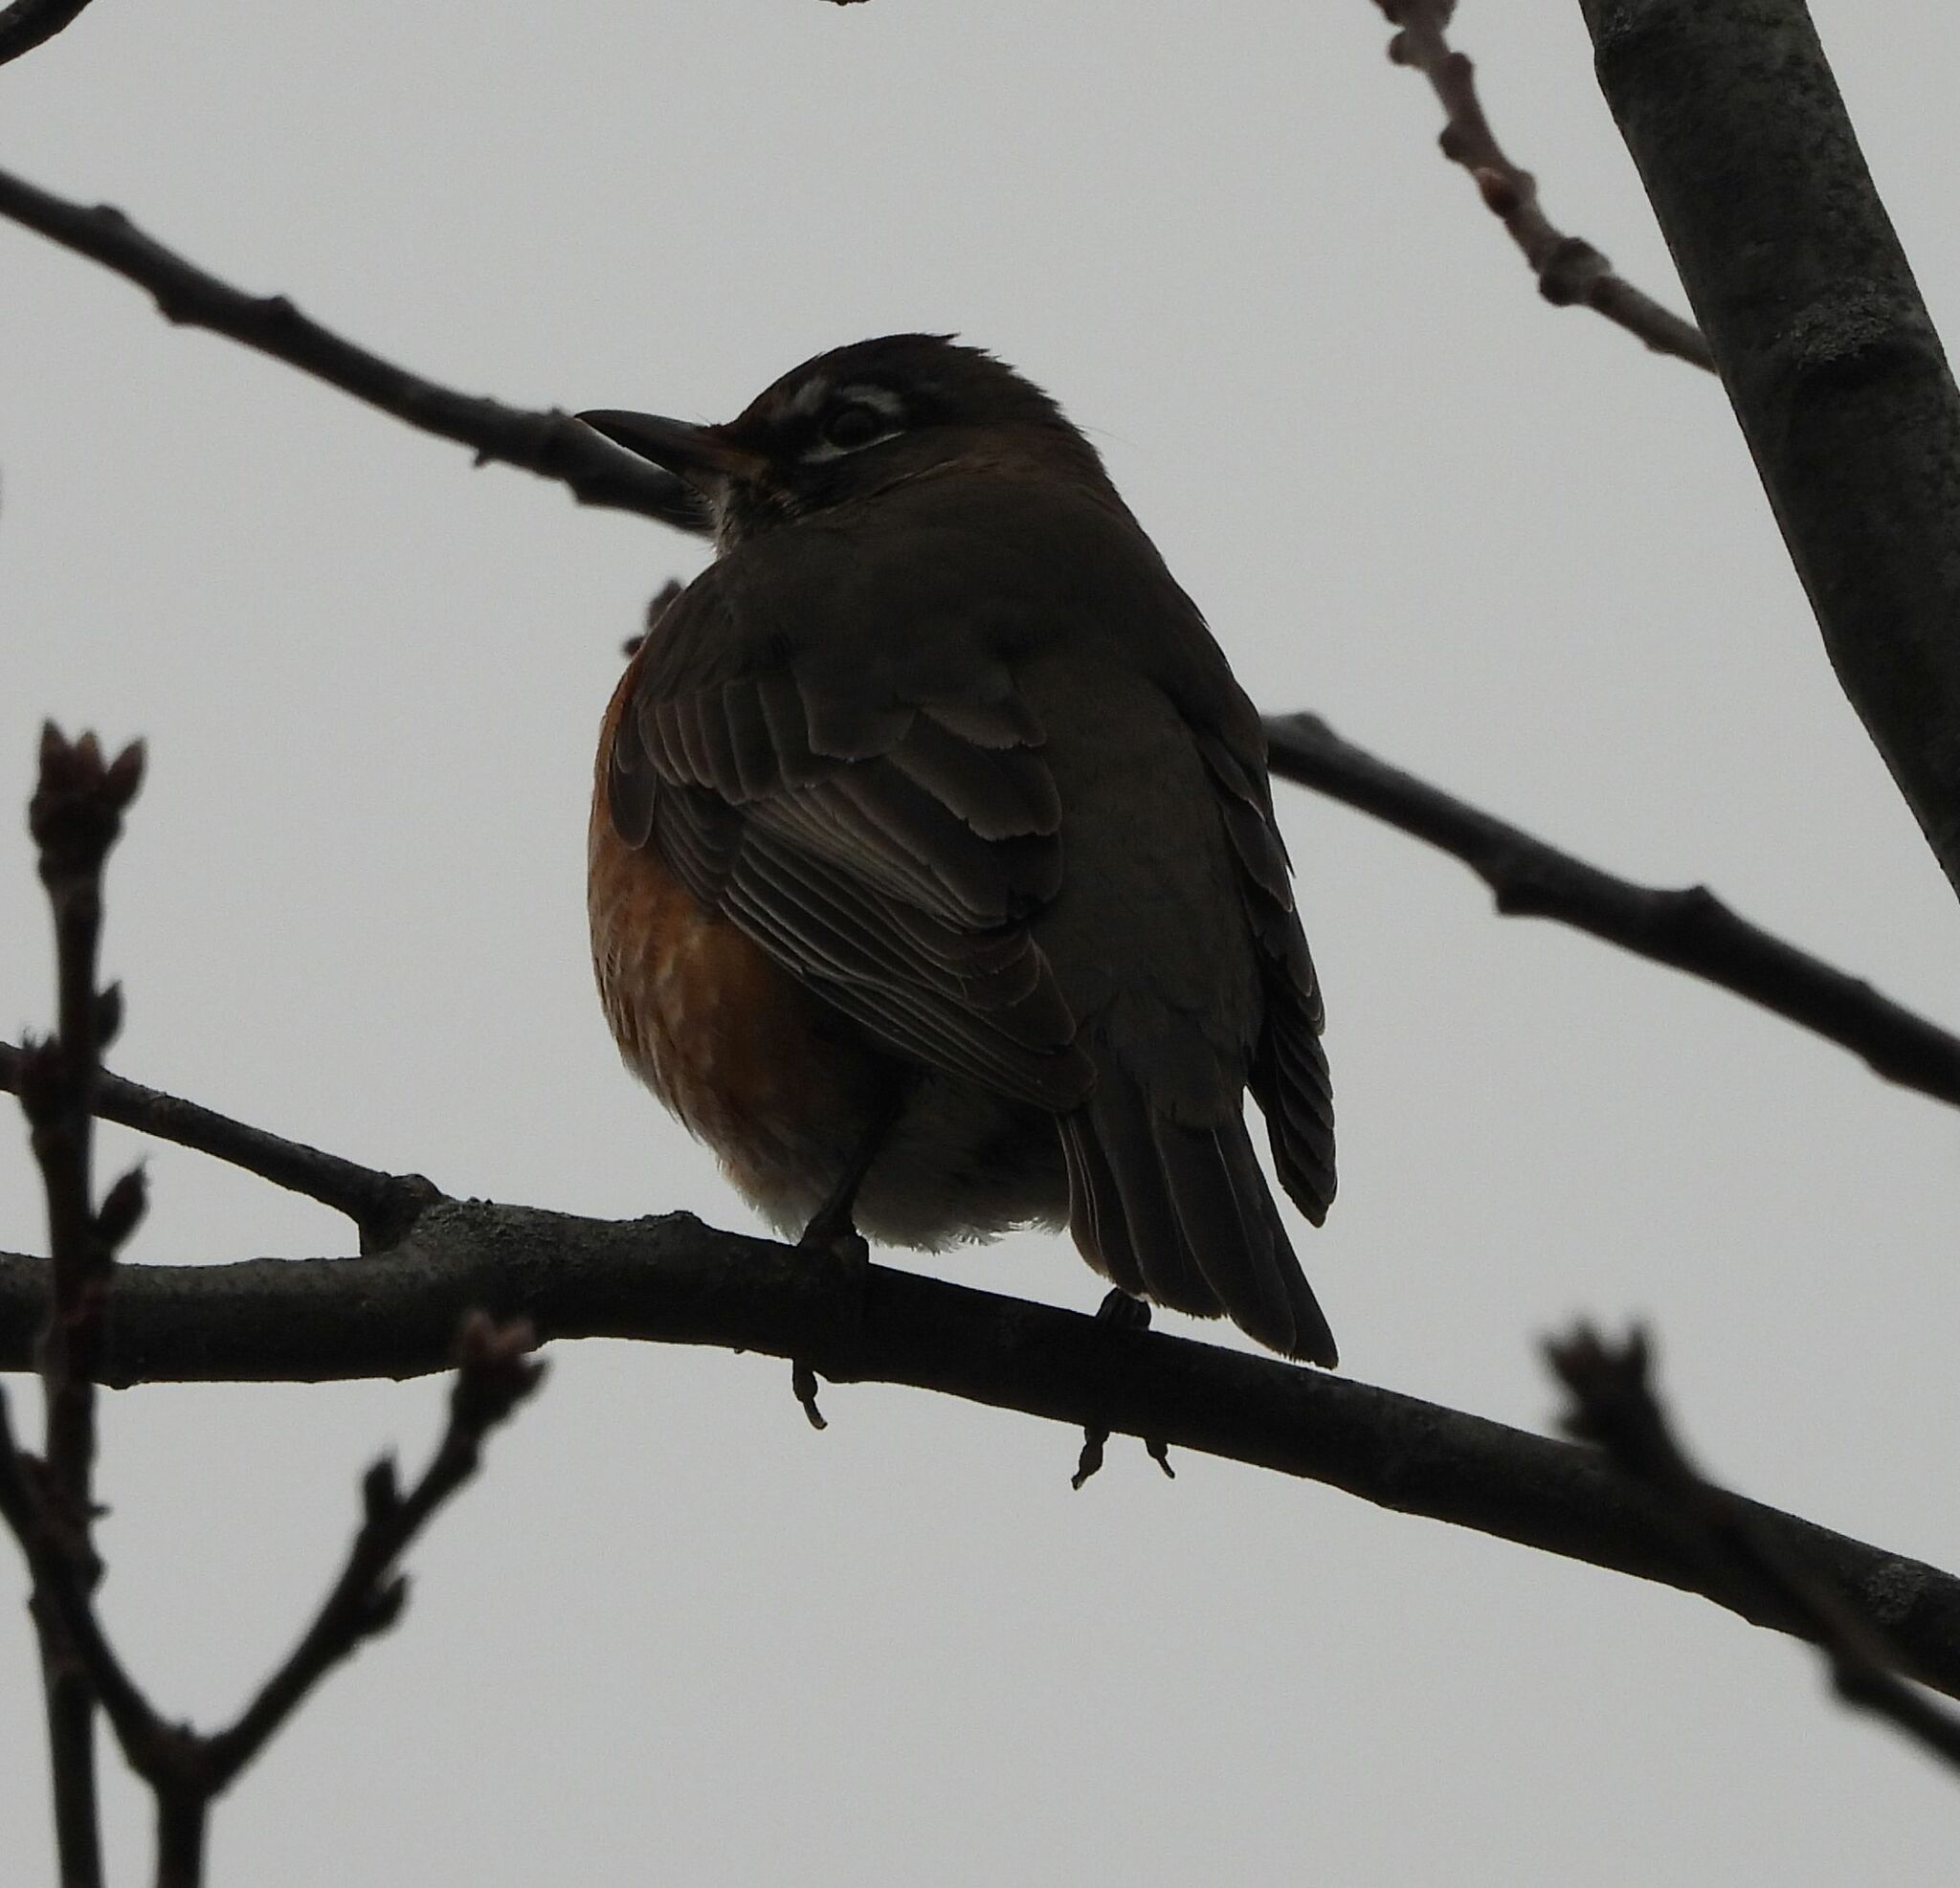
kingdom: Animalia
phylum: Chordata
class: Aves
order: Passeriformes
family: Turdidae
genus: Turdus
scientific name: Turdus migratorius
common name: American robin
